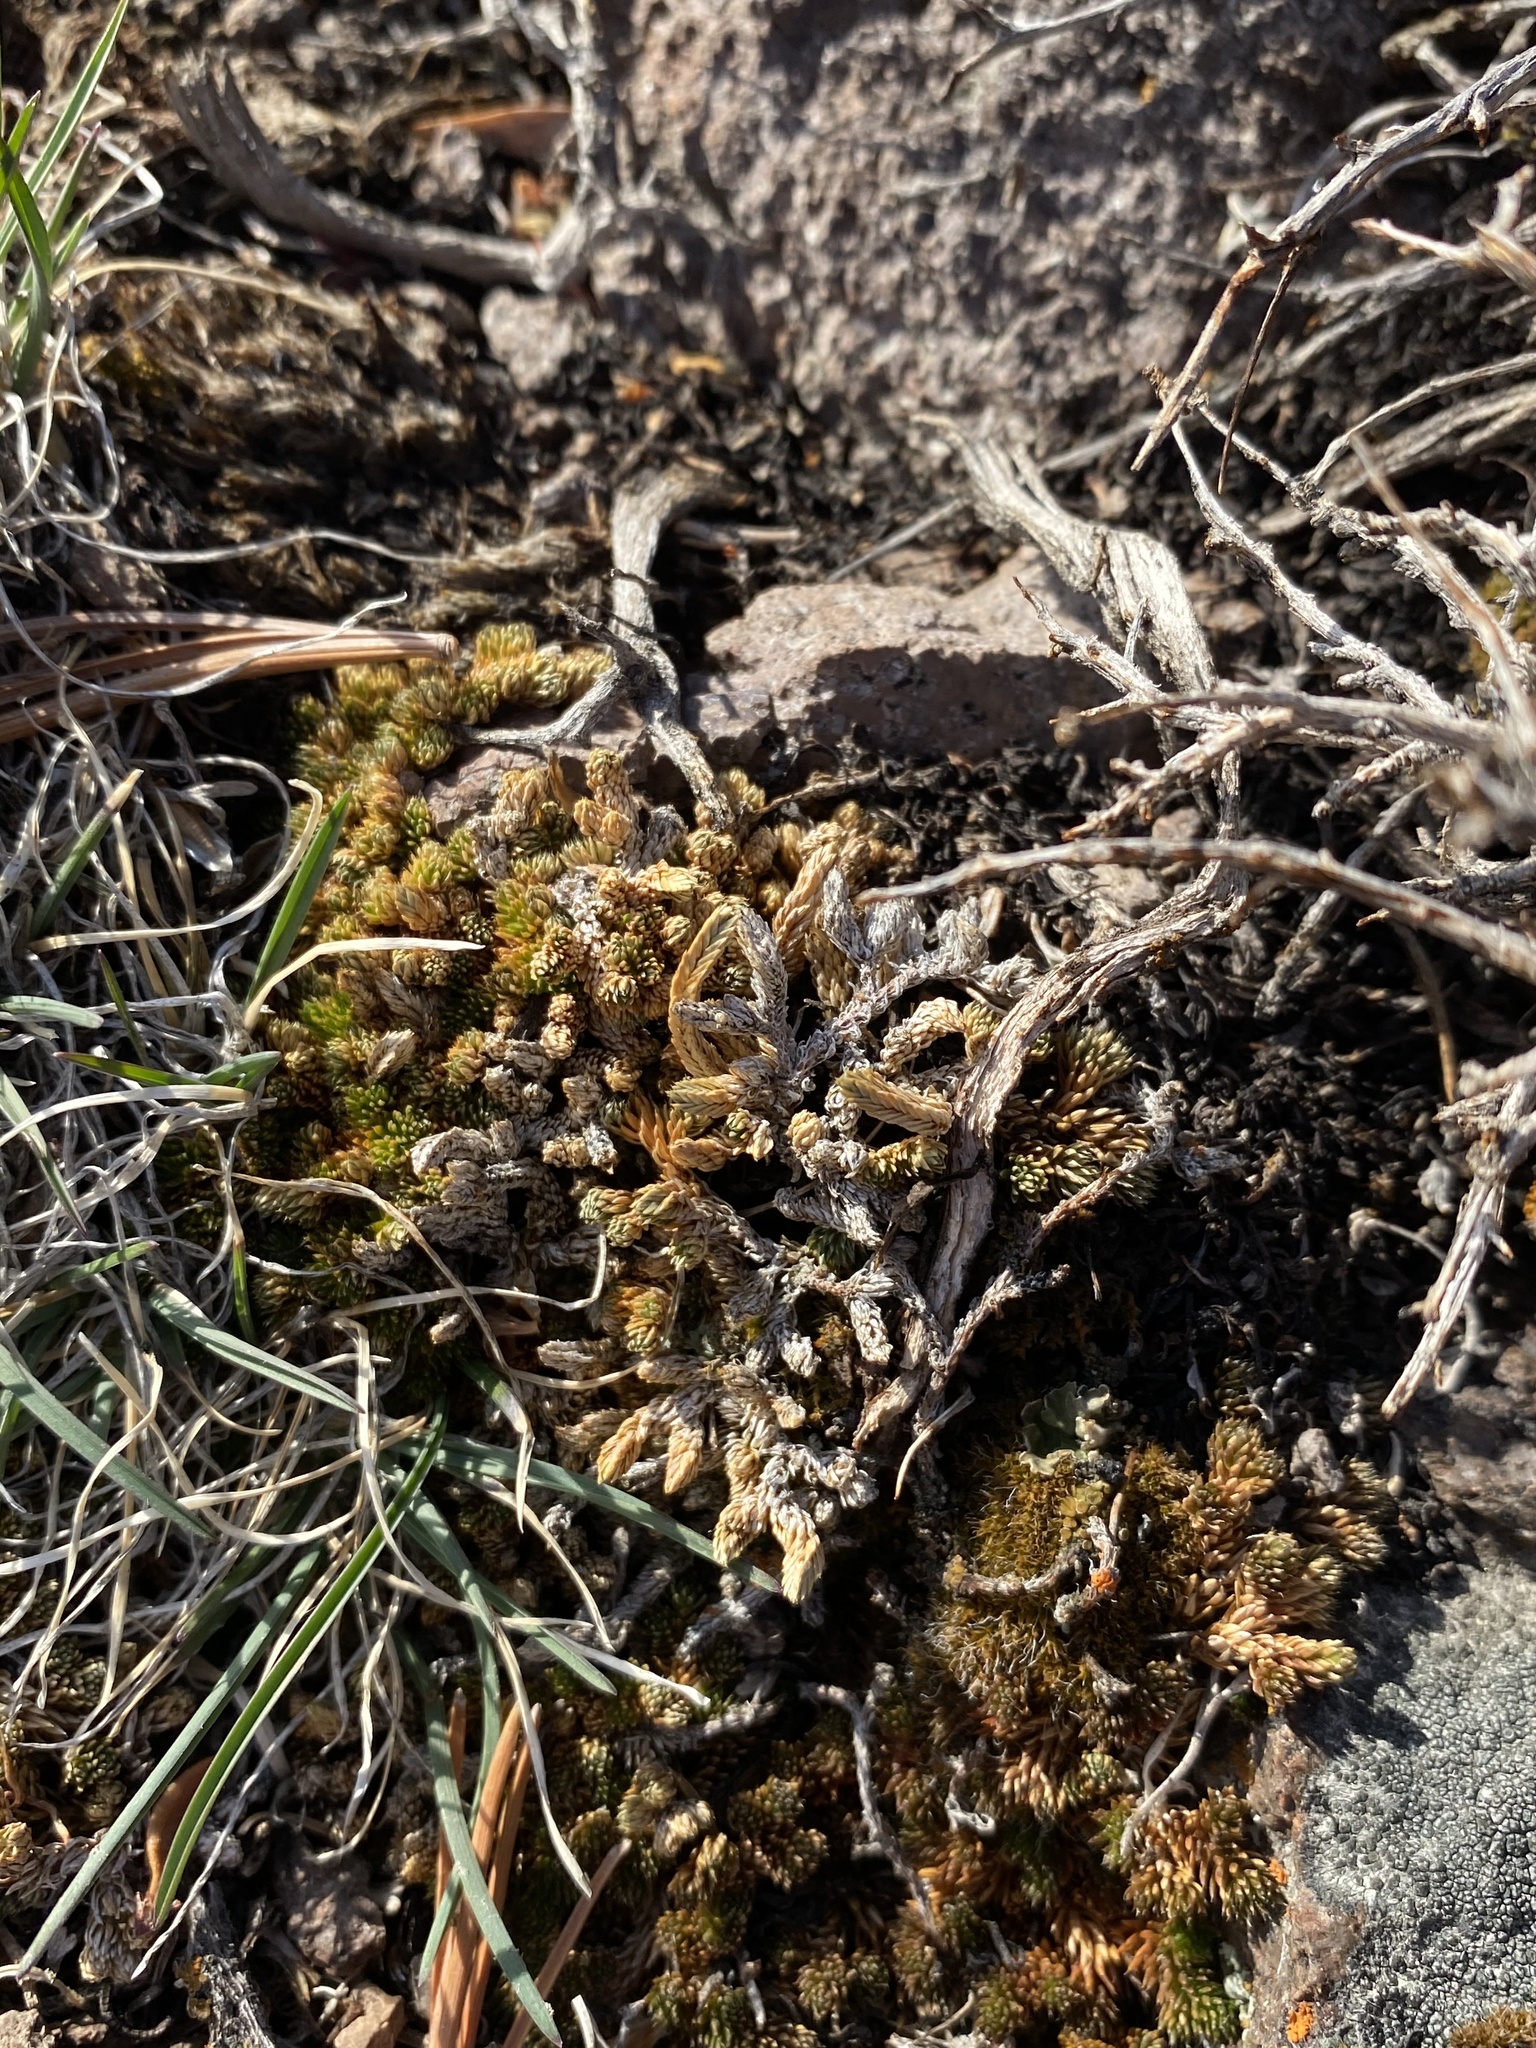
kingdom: Plantae
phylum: Tracheophyta
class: Lycopodiopsida
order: Selaginellales
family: Selaginellaceae
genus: Selaginella
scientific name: Selaginella watsonii
